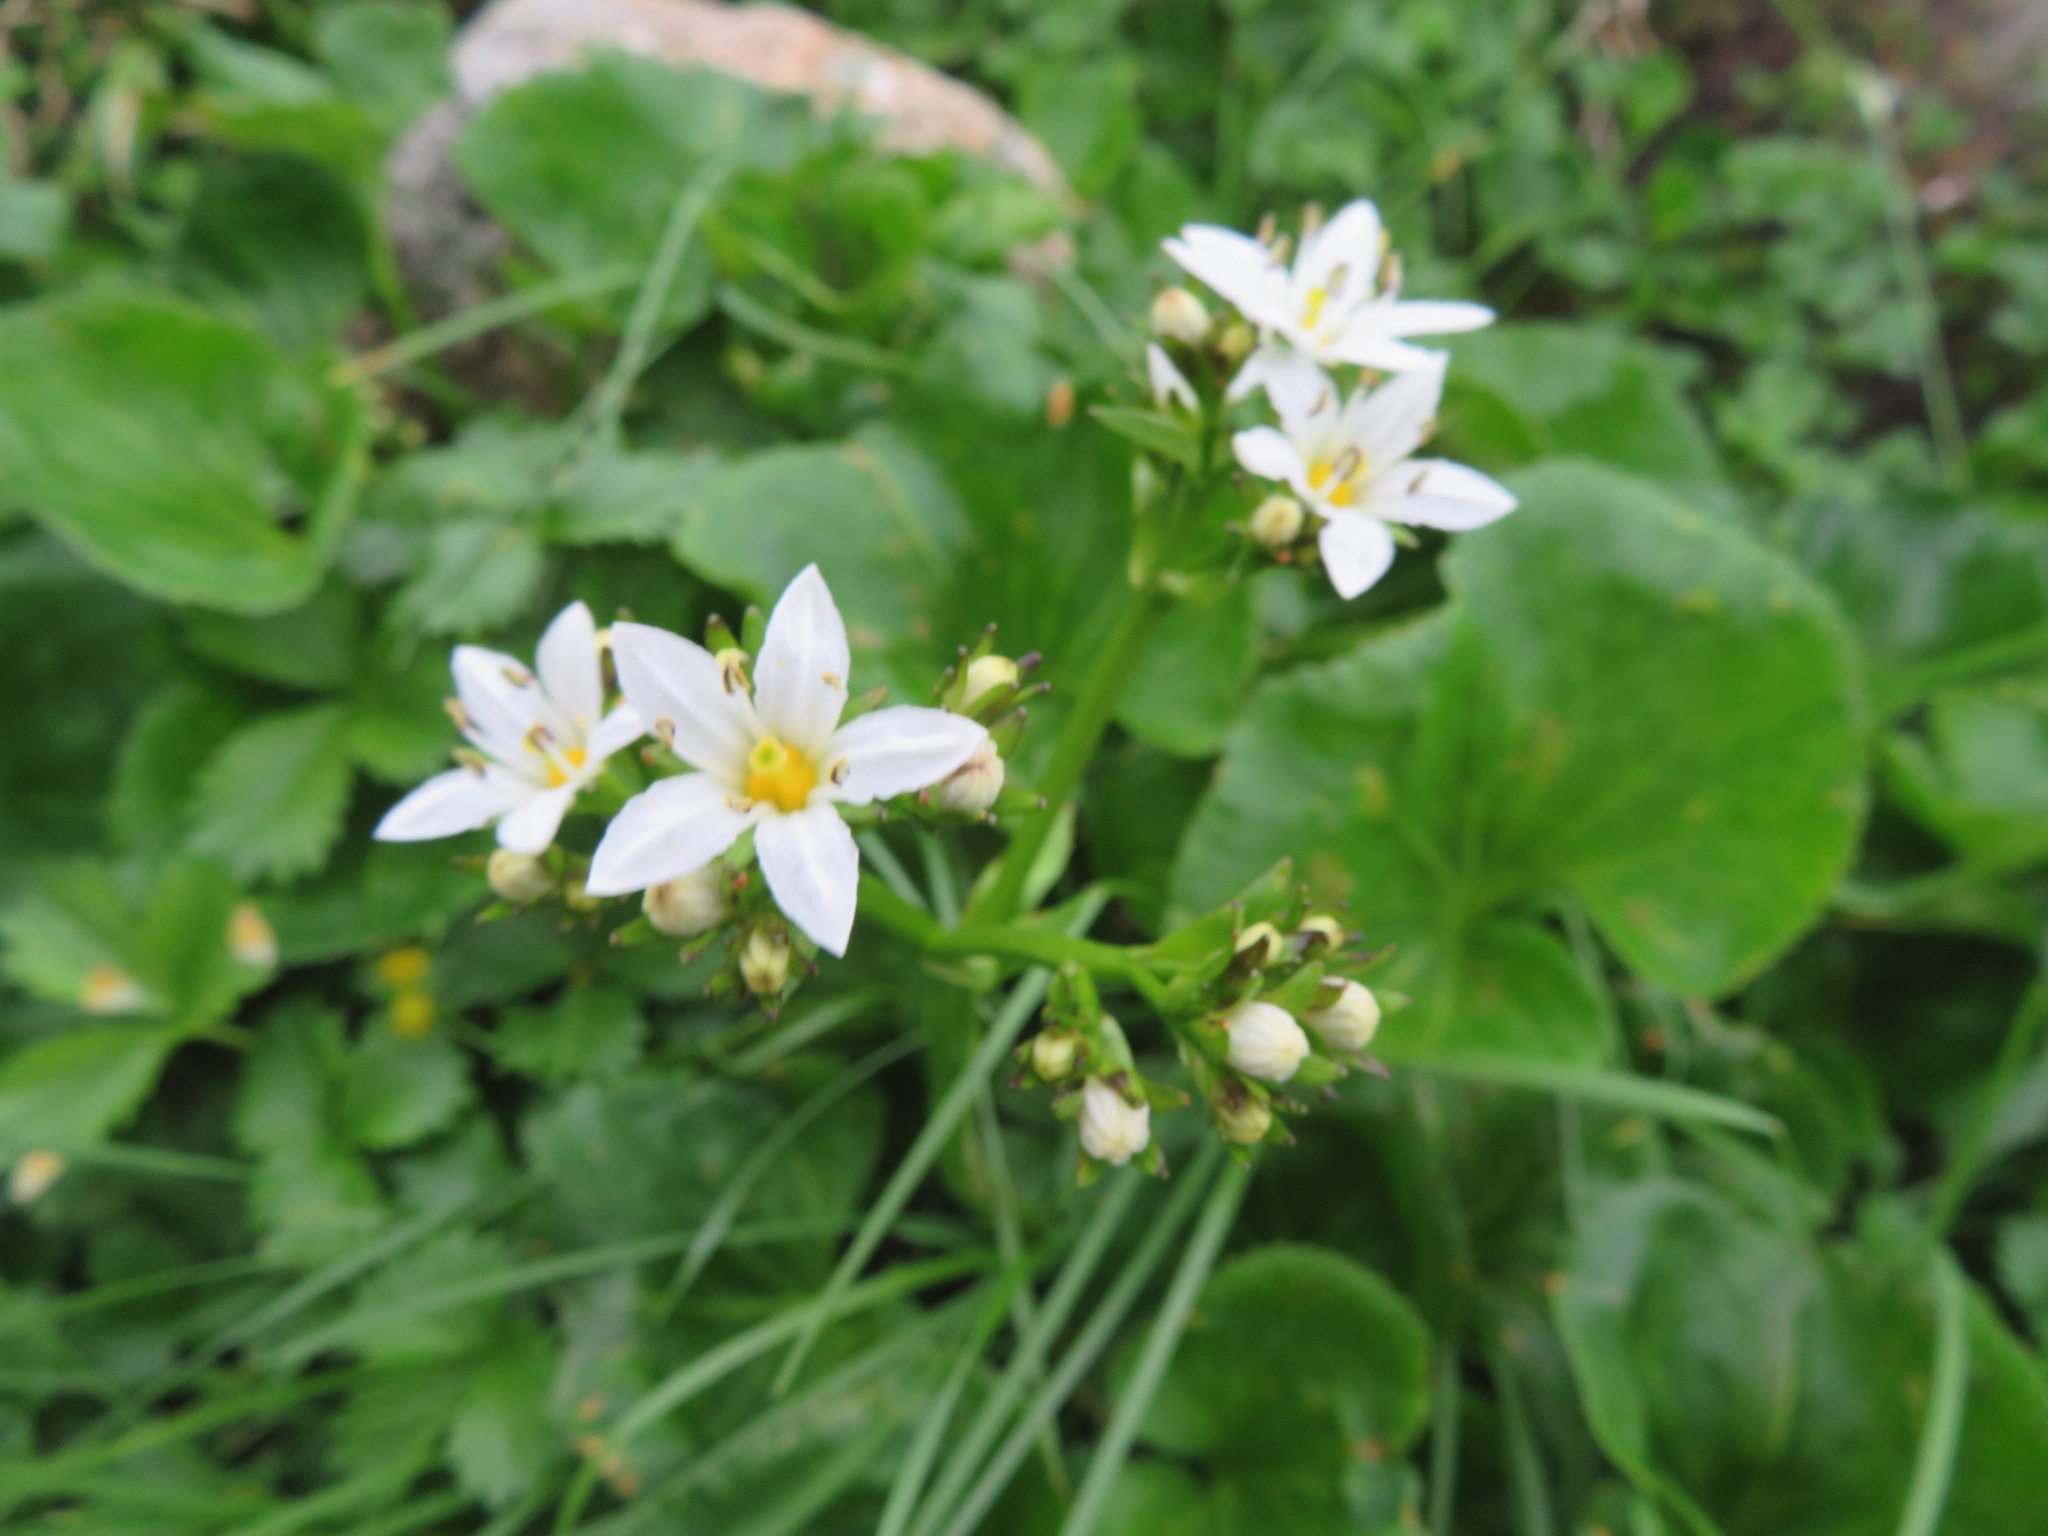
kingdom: Plantae
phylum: Tracheophyta
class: Magnoliopsida
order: Asterales
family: Menyanthaceae
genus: Nephrophyllidium
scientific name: Nephrophyllidium crista-galli
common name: Deer-cabbage
